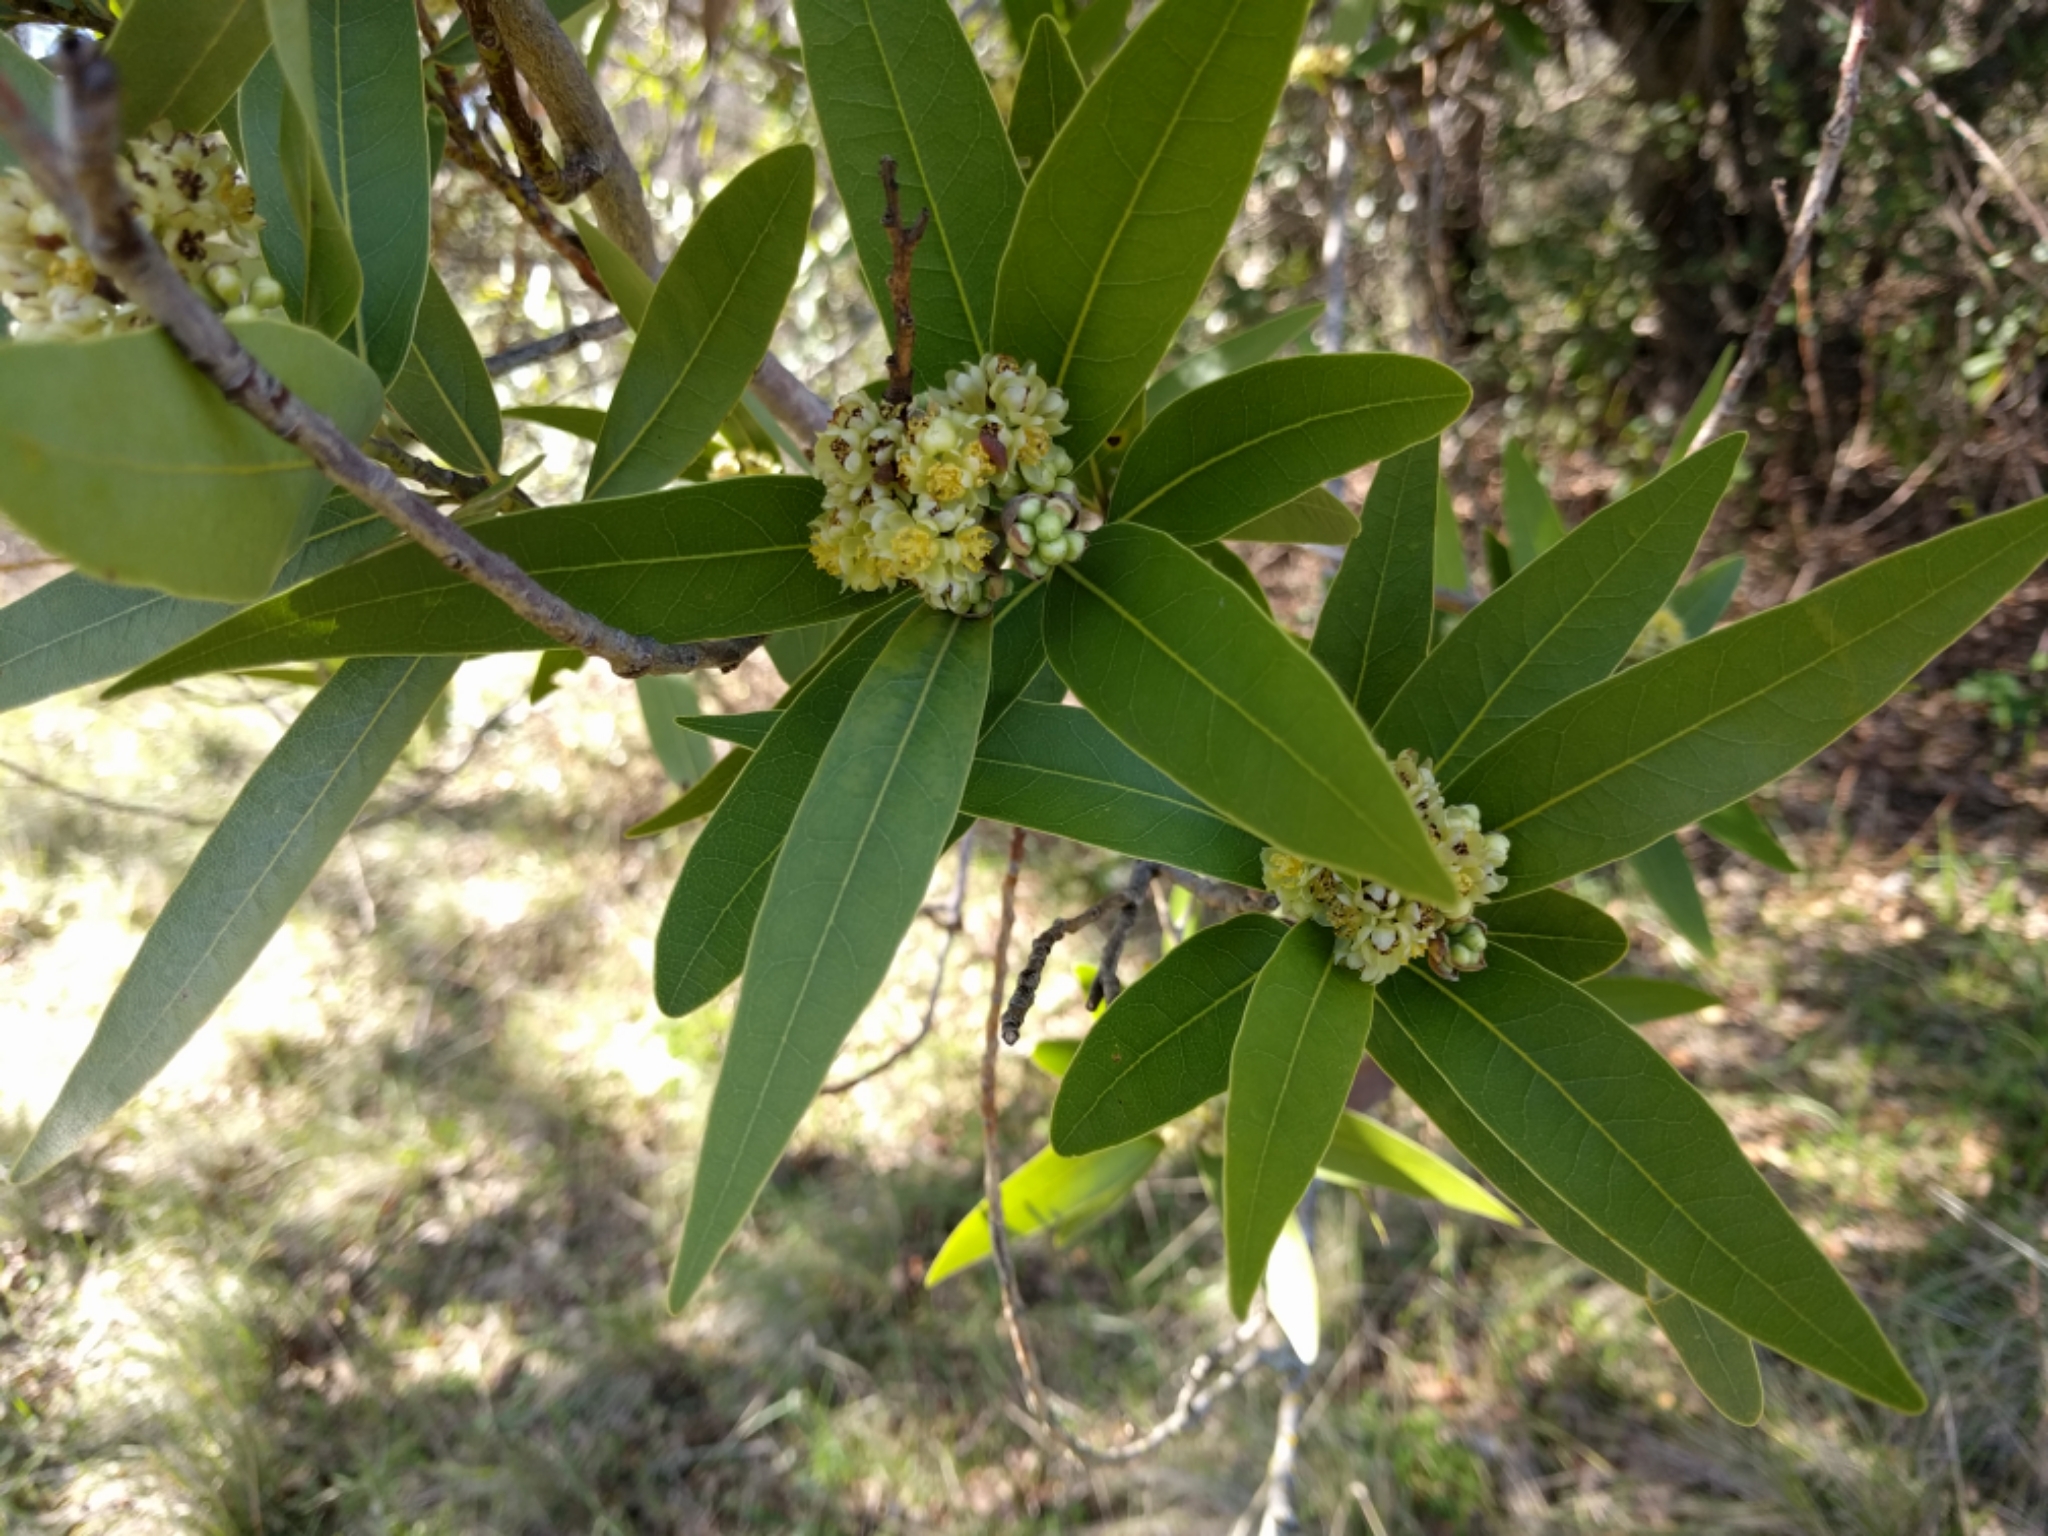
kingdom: Plantae
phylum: Tracheophyta
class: Magnoliopsida
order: Laurales
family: Lauraceae
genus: Umbellularia
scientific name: Umbellularia californica
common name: California bay
